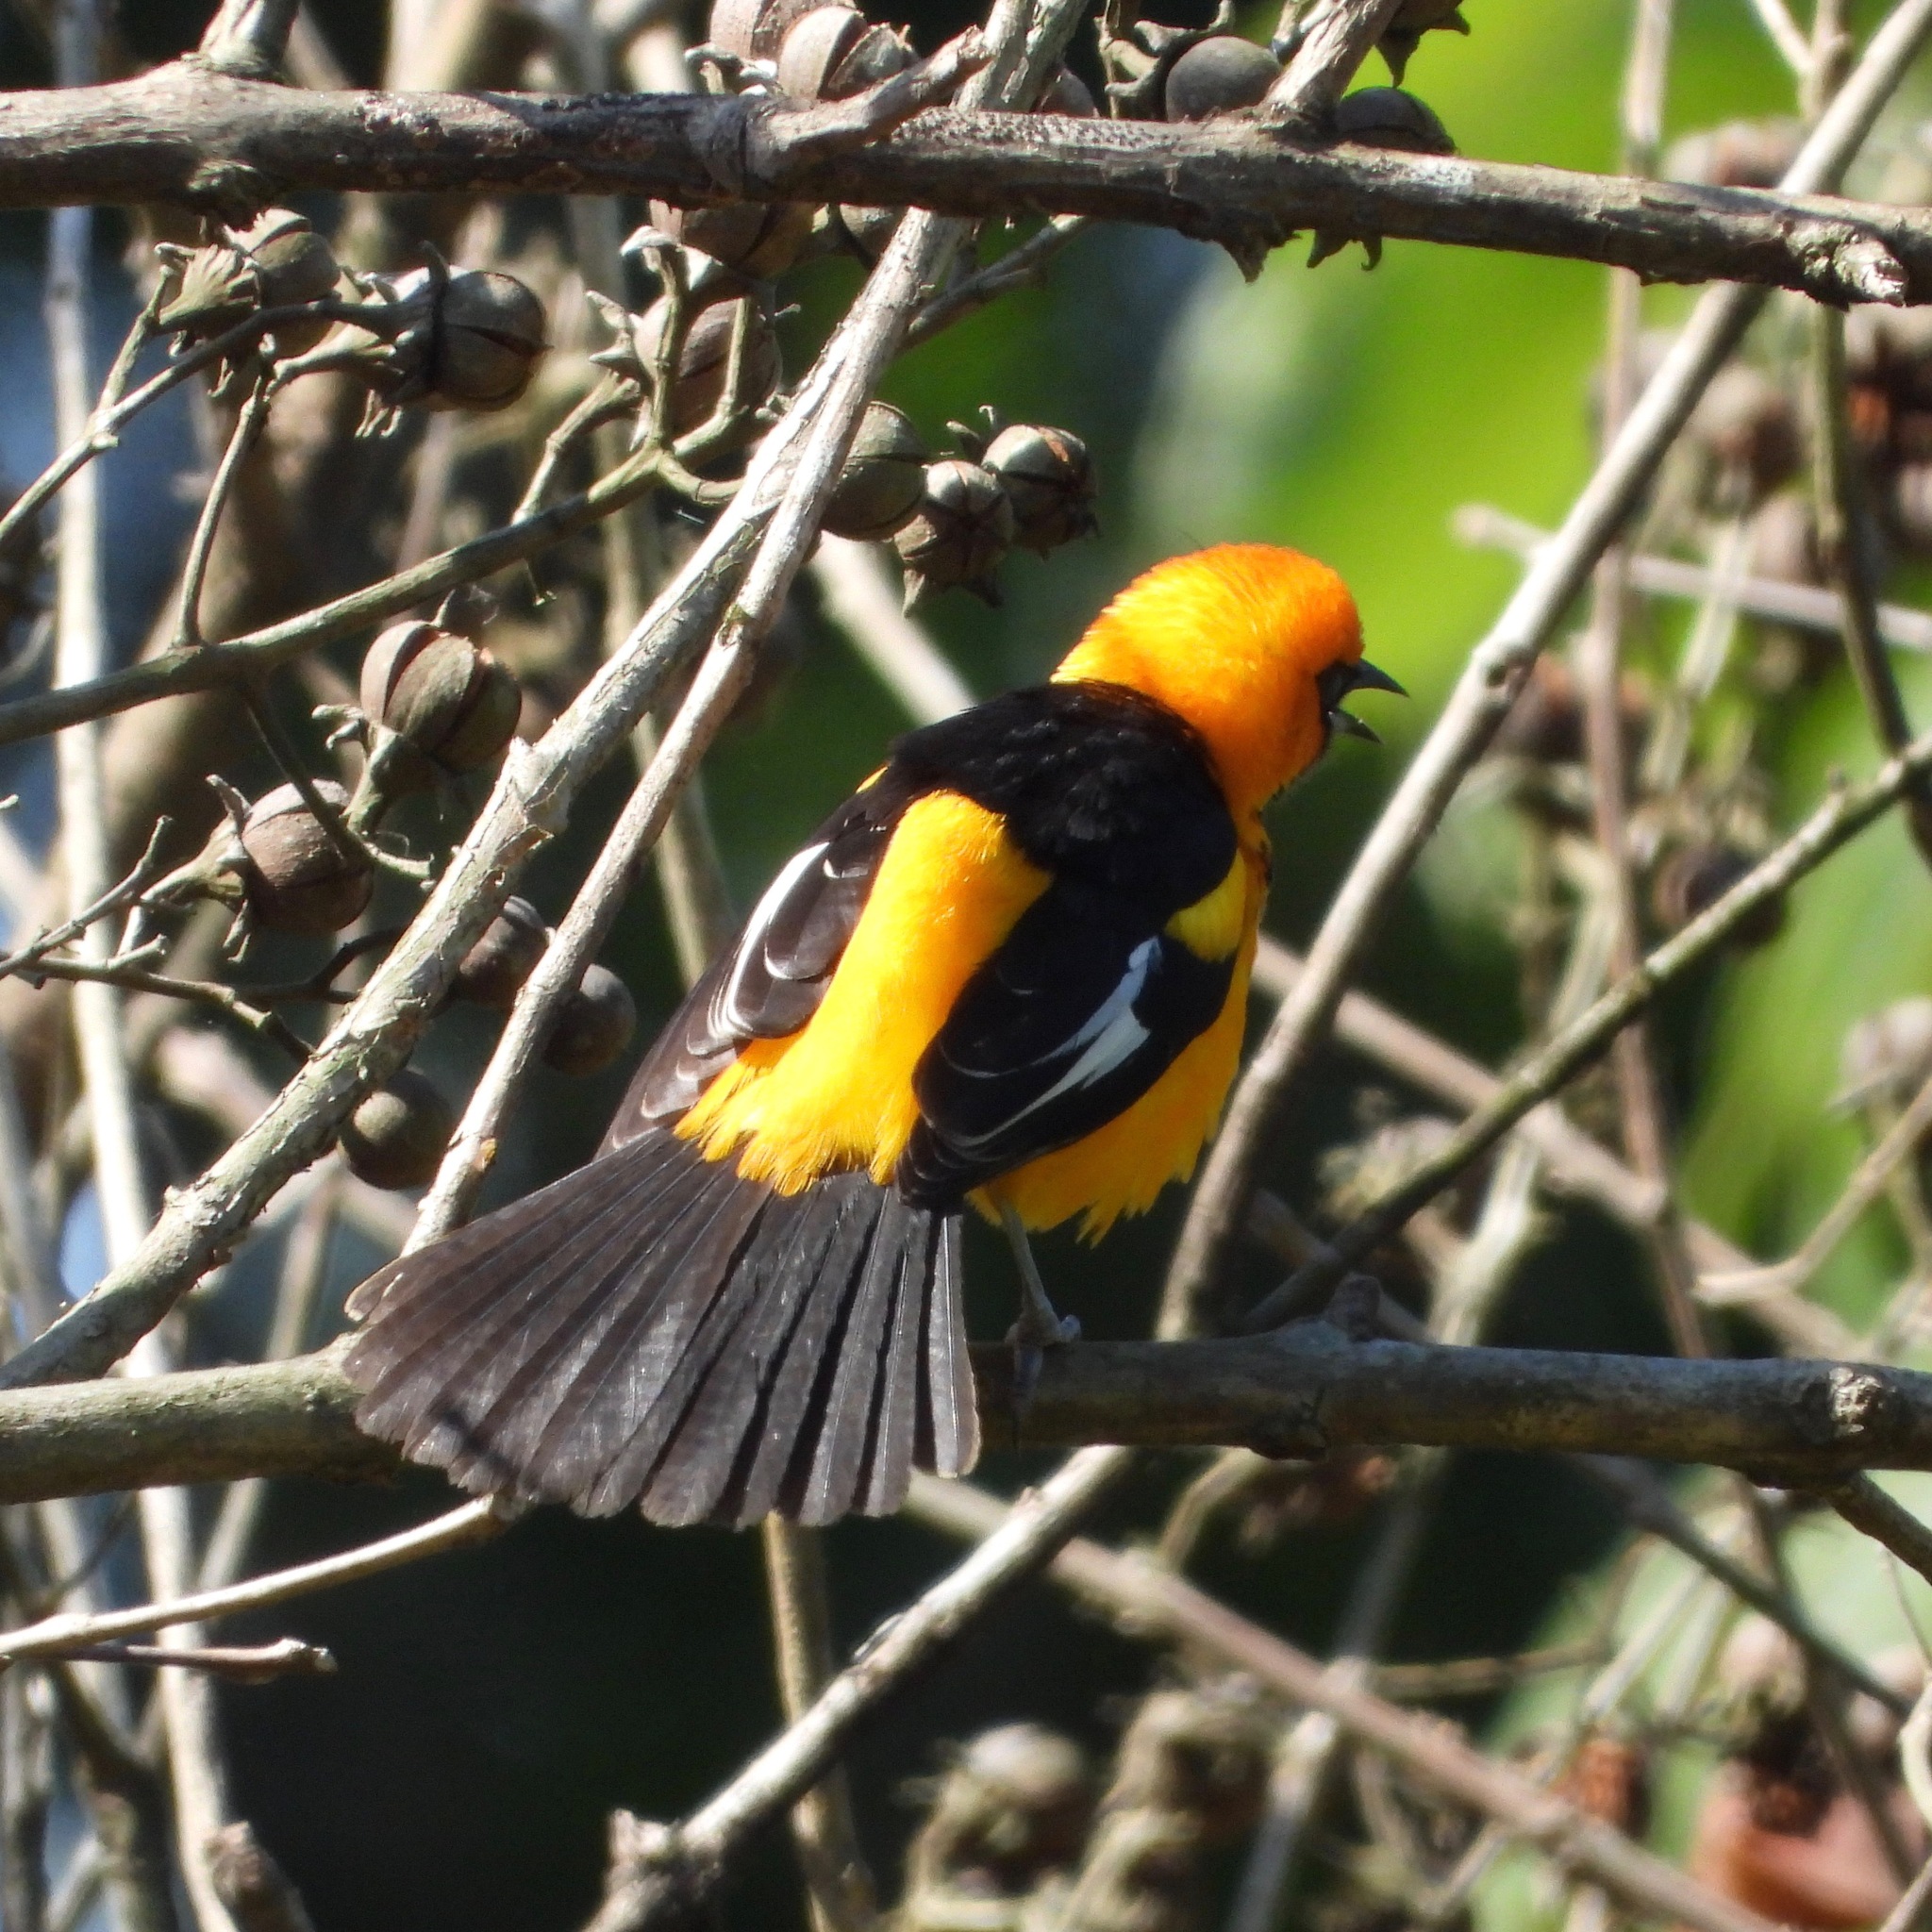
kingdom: Animalia
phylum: Chordata
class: Aves
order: Passeriformes
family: Icteridae
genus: Icterus
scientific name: Icterus pectoralis
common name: Spot-breasted oriole
